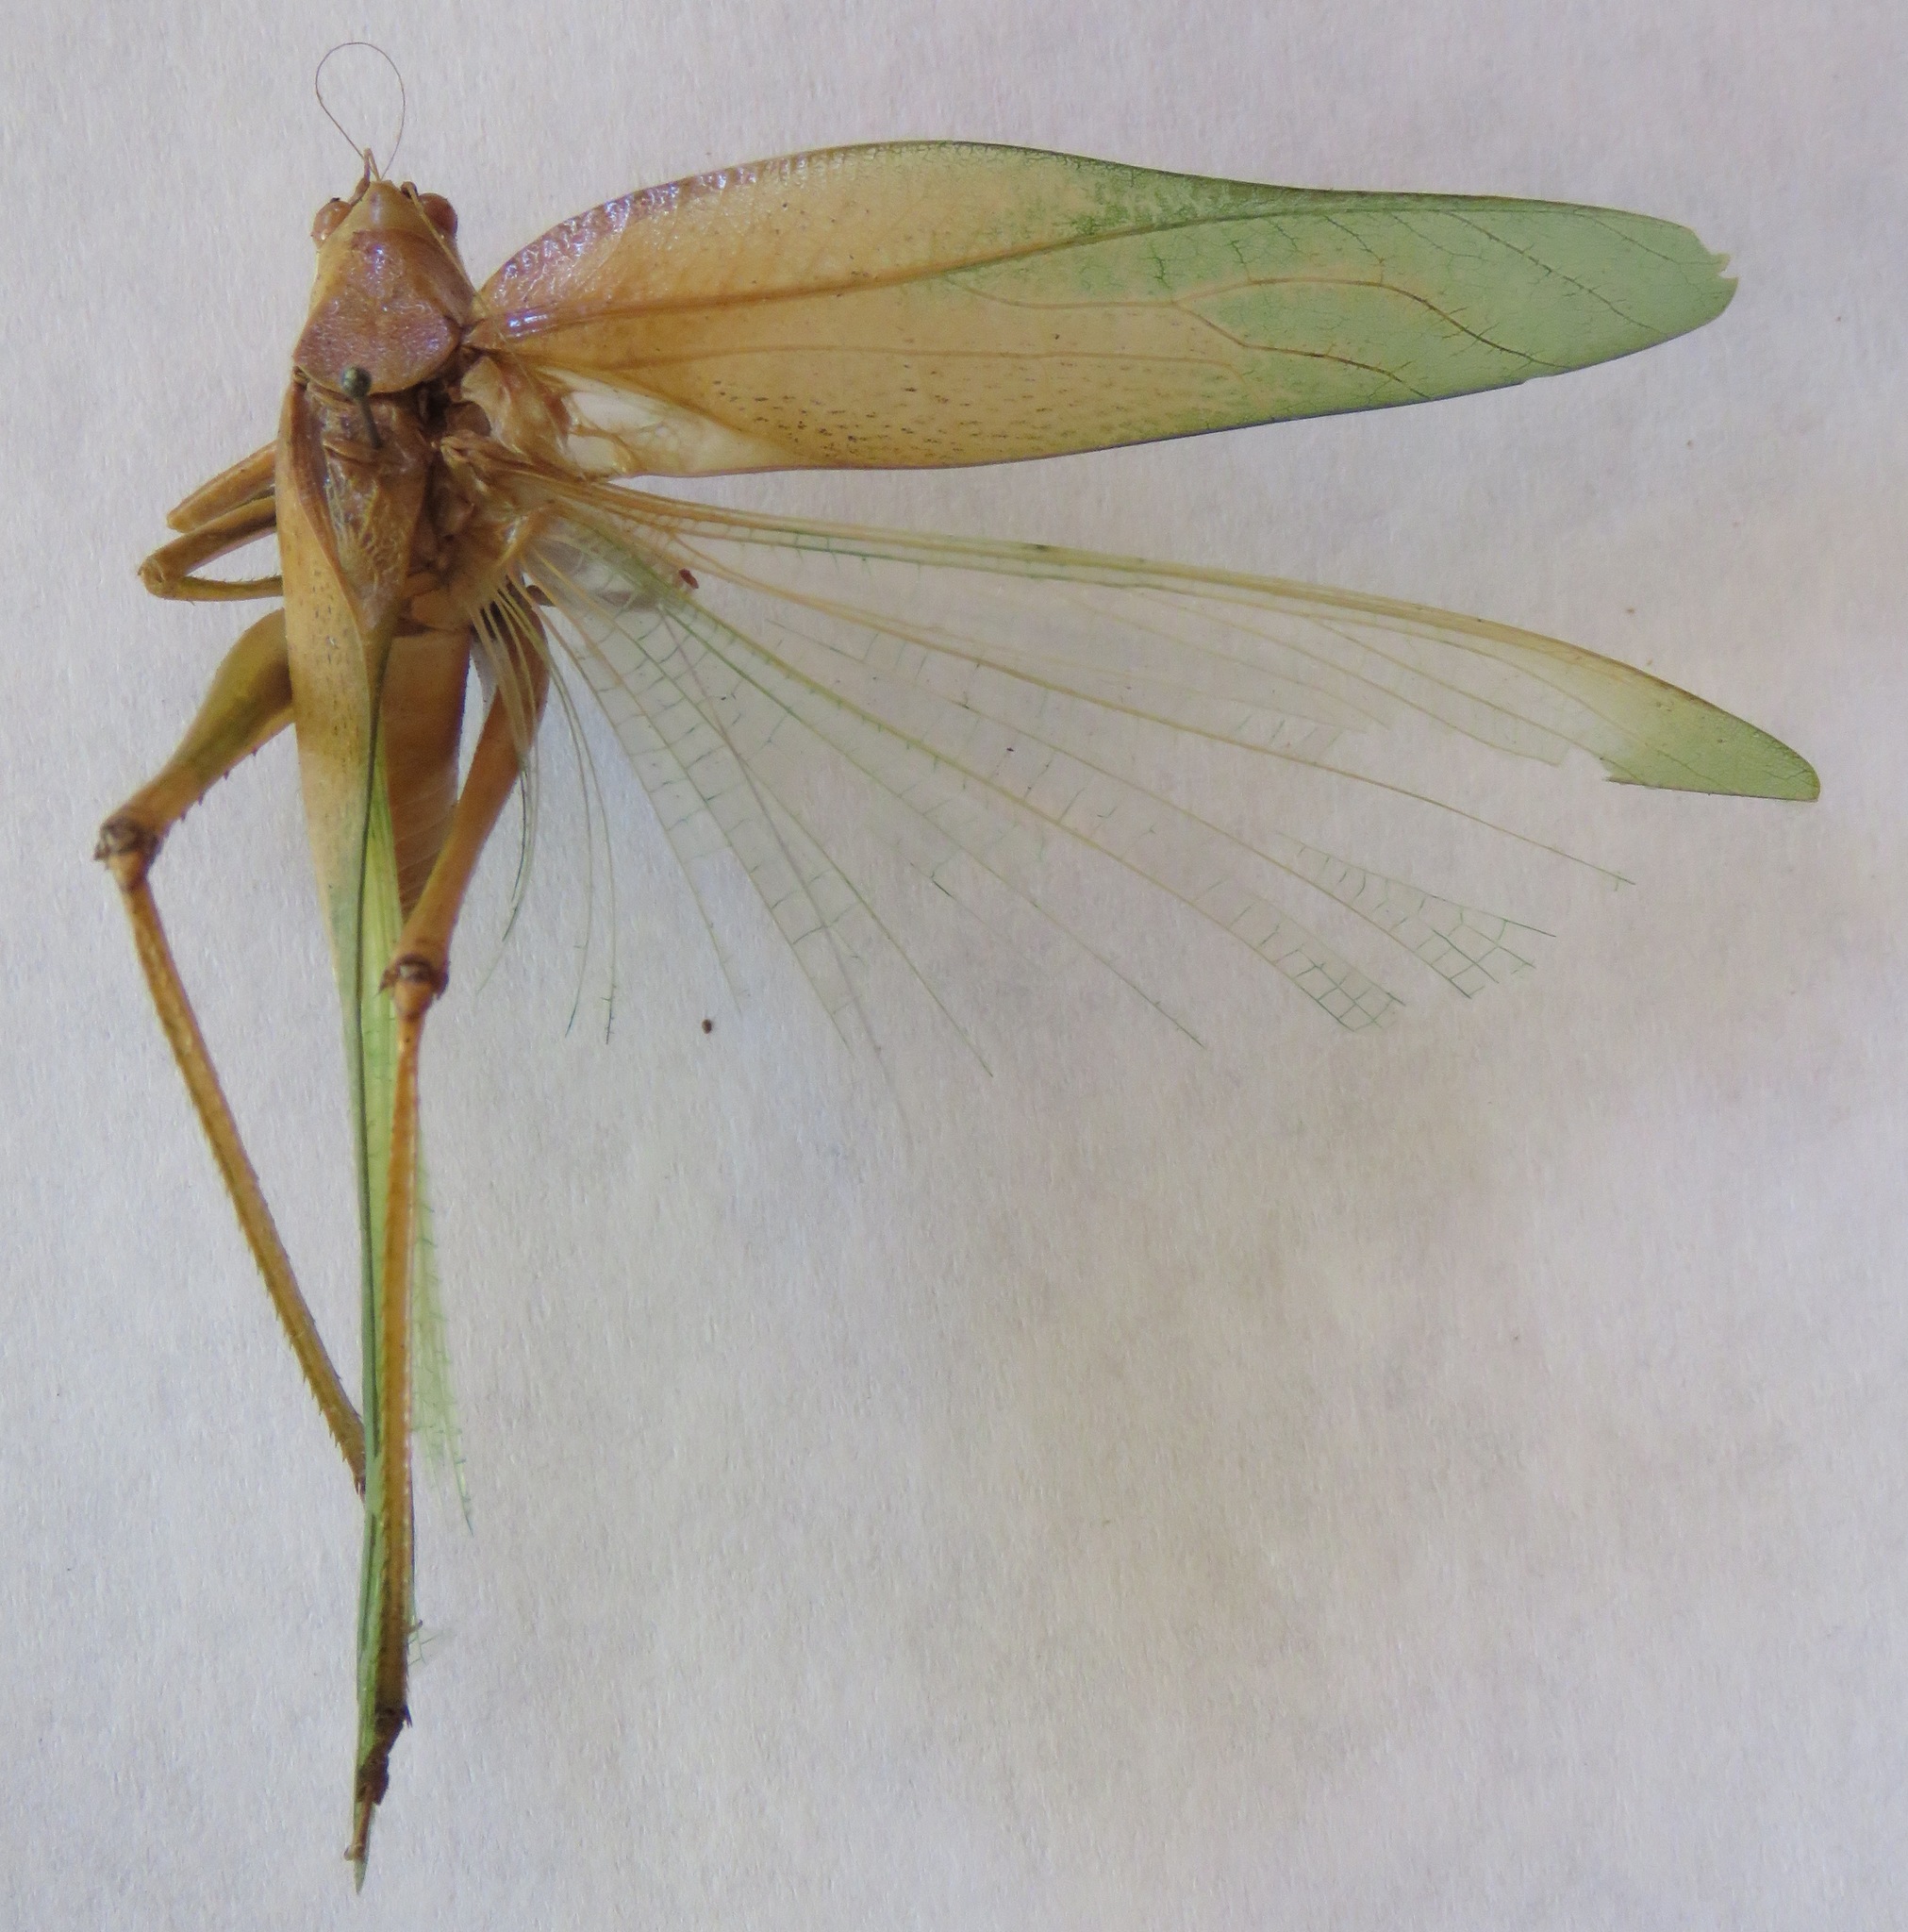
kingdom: Animalia
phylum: Arthropoda
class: Insecta
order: Orthoptera
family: Tettigoniidae
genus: Philophyllia
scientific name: Philophyllia guttulata
